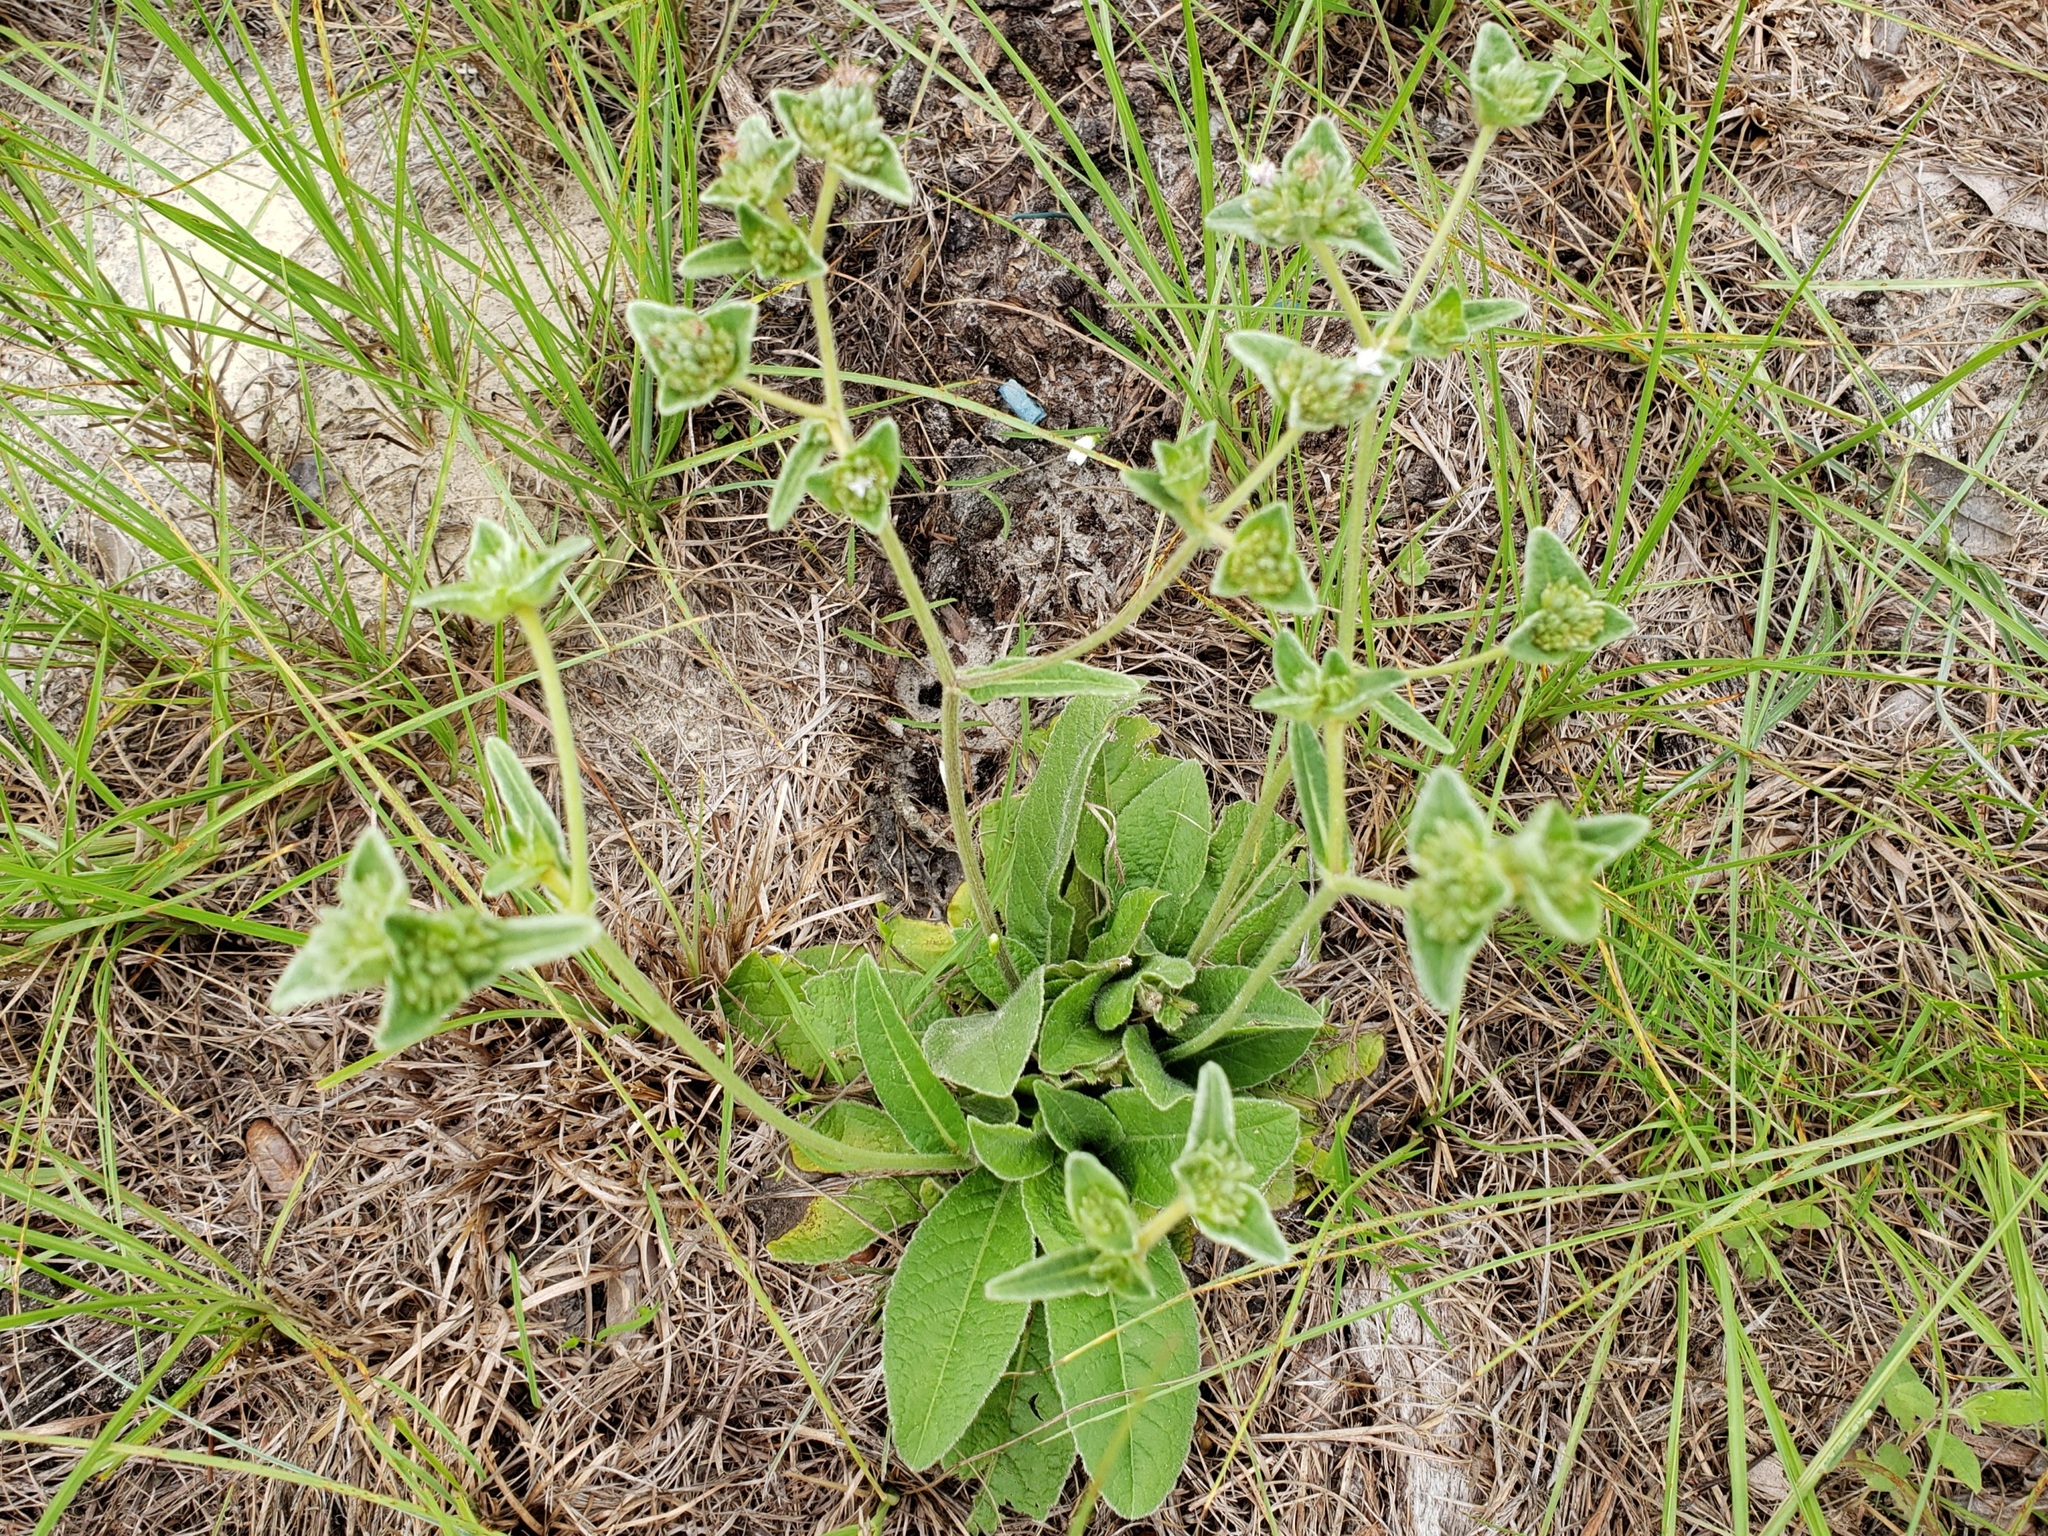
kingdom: Plantae
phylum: Tracheophyta
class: Magnoliopsida
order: Asterales
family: Asteraceae
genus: Elephantopus
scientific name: Elephantopus elatus
